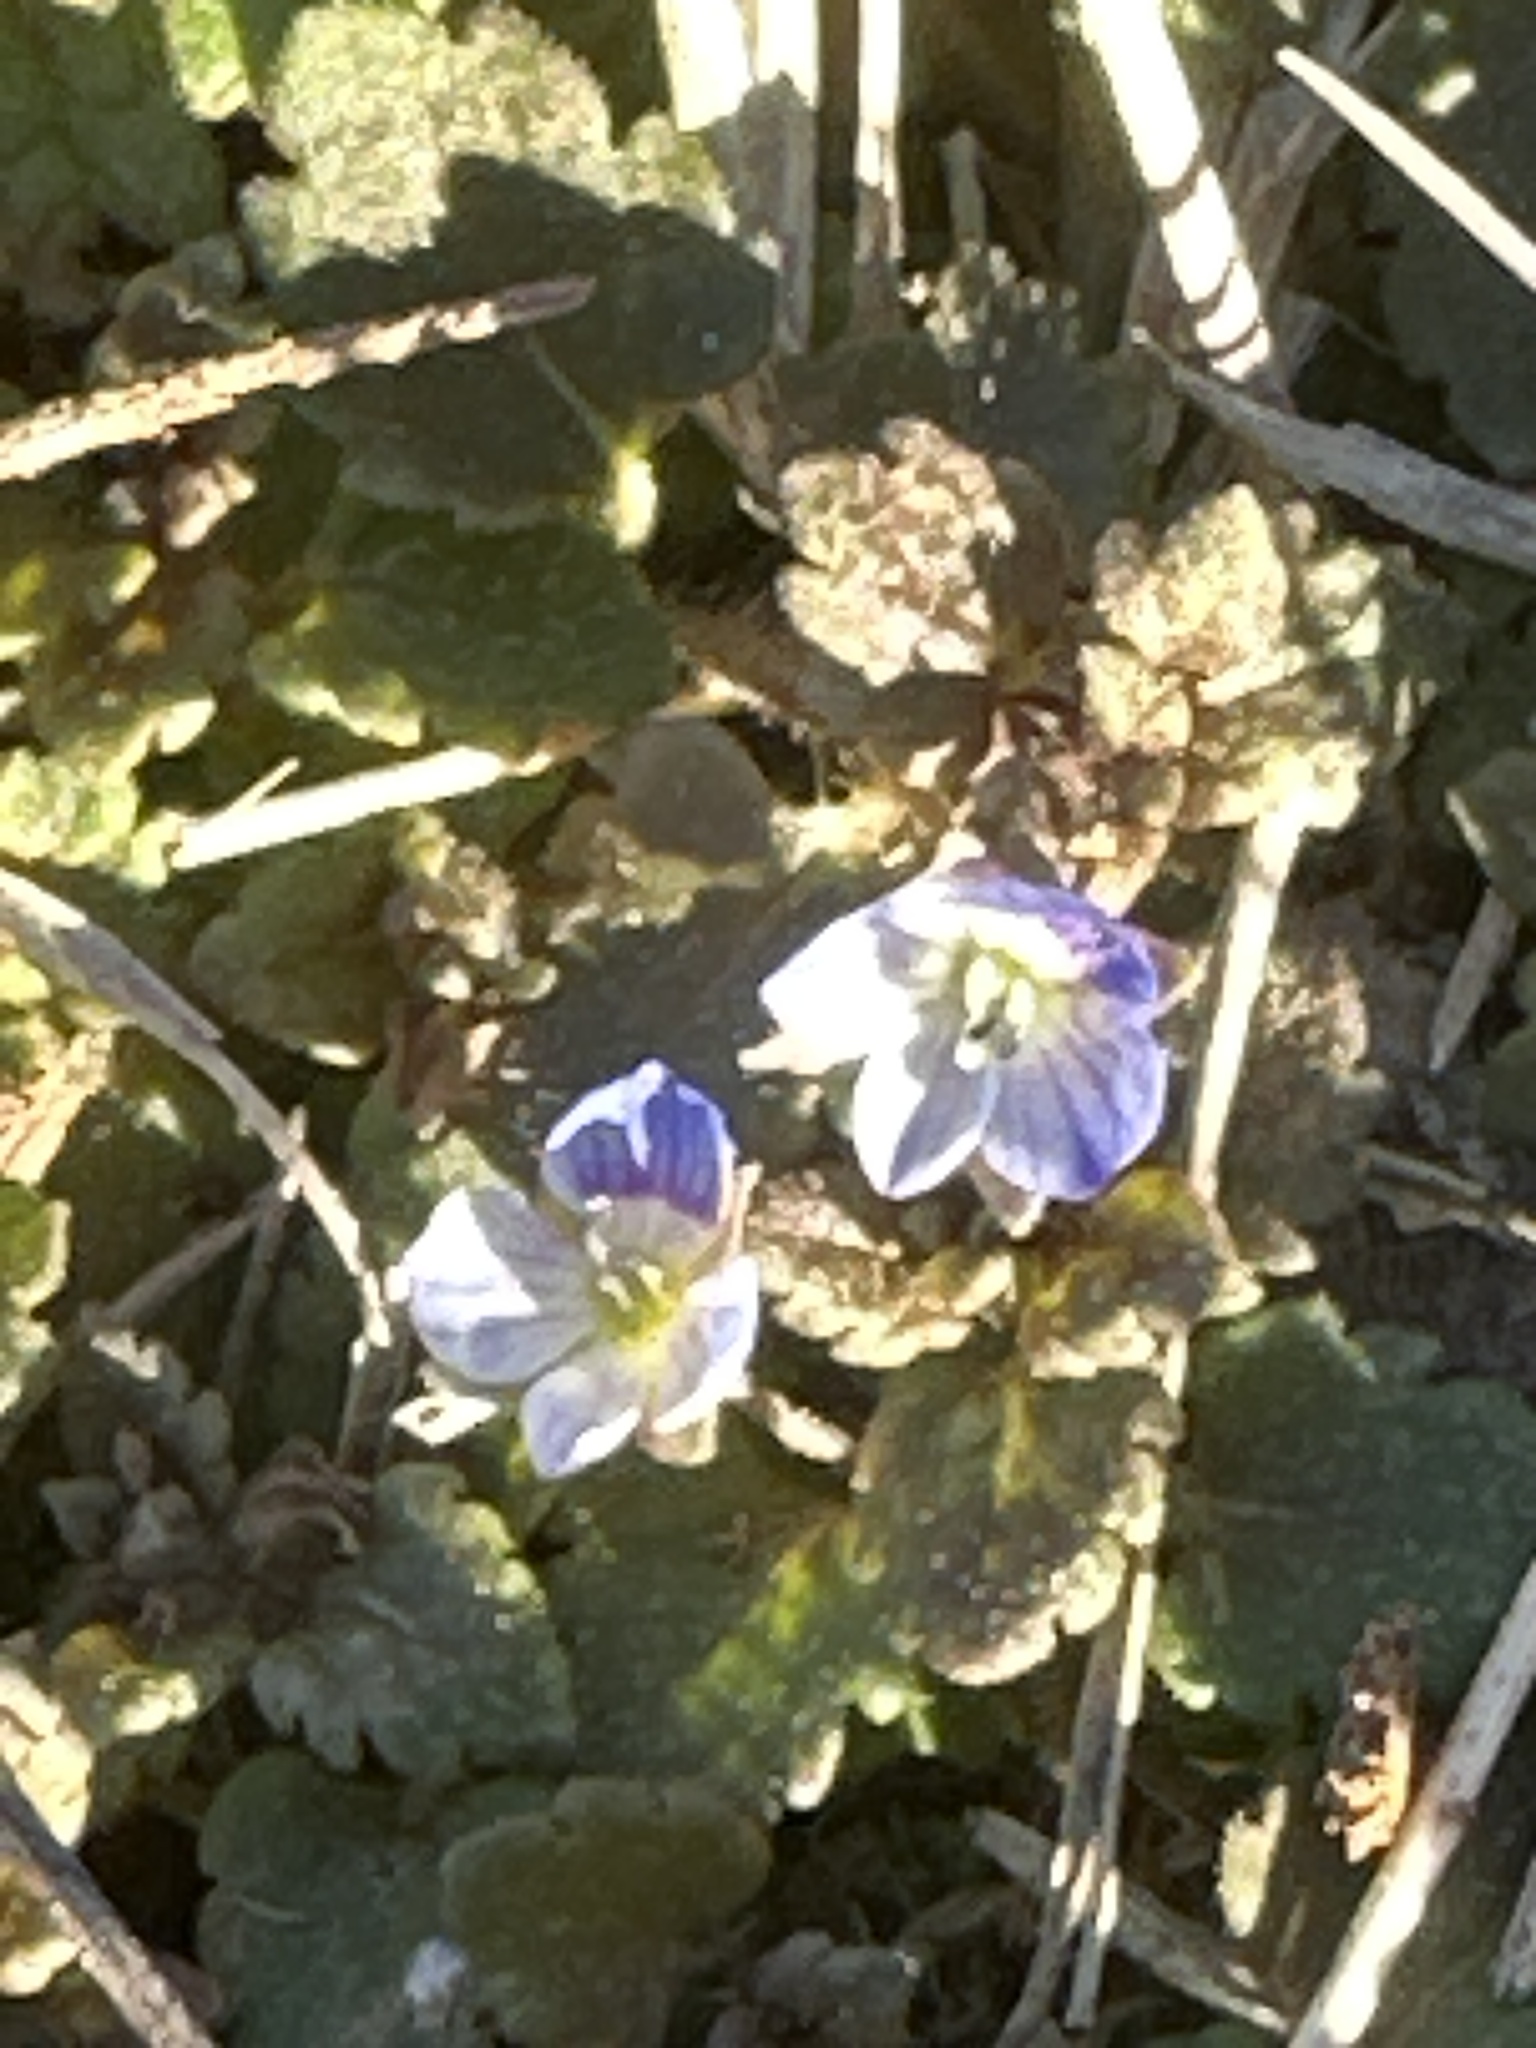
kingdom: Plantae
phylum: Tracheophyta
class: Magnoliopsida
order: Lamiales
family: Plantaginaceae
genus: Veronica
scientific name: Veronica polita
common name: Grey field-speedwell
